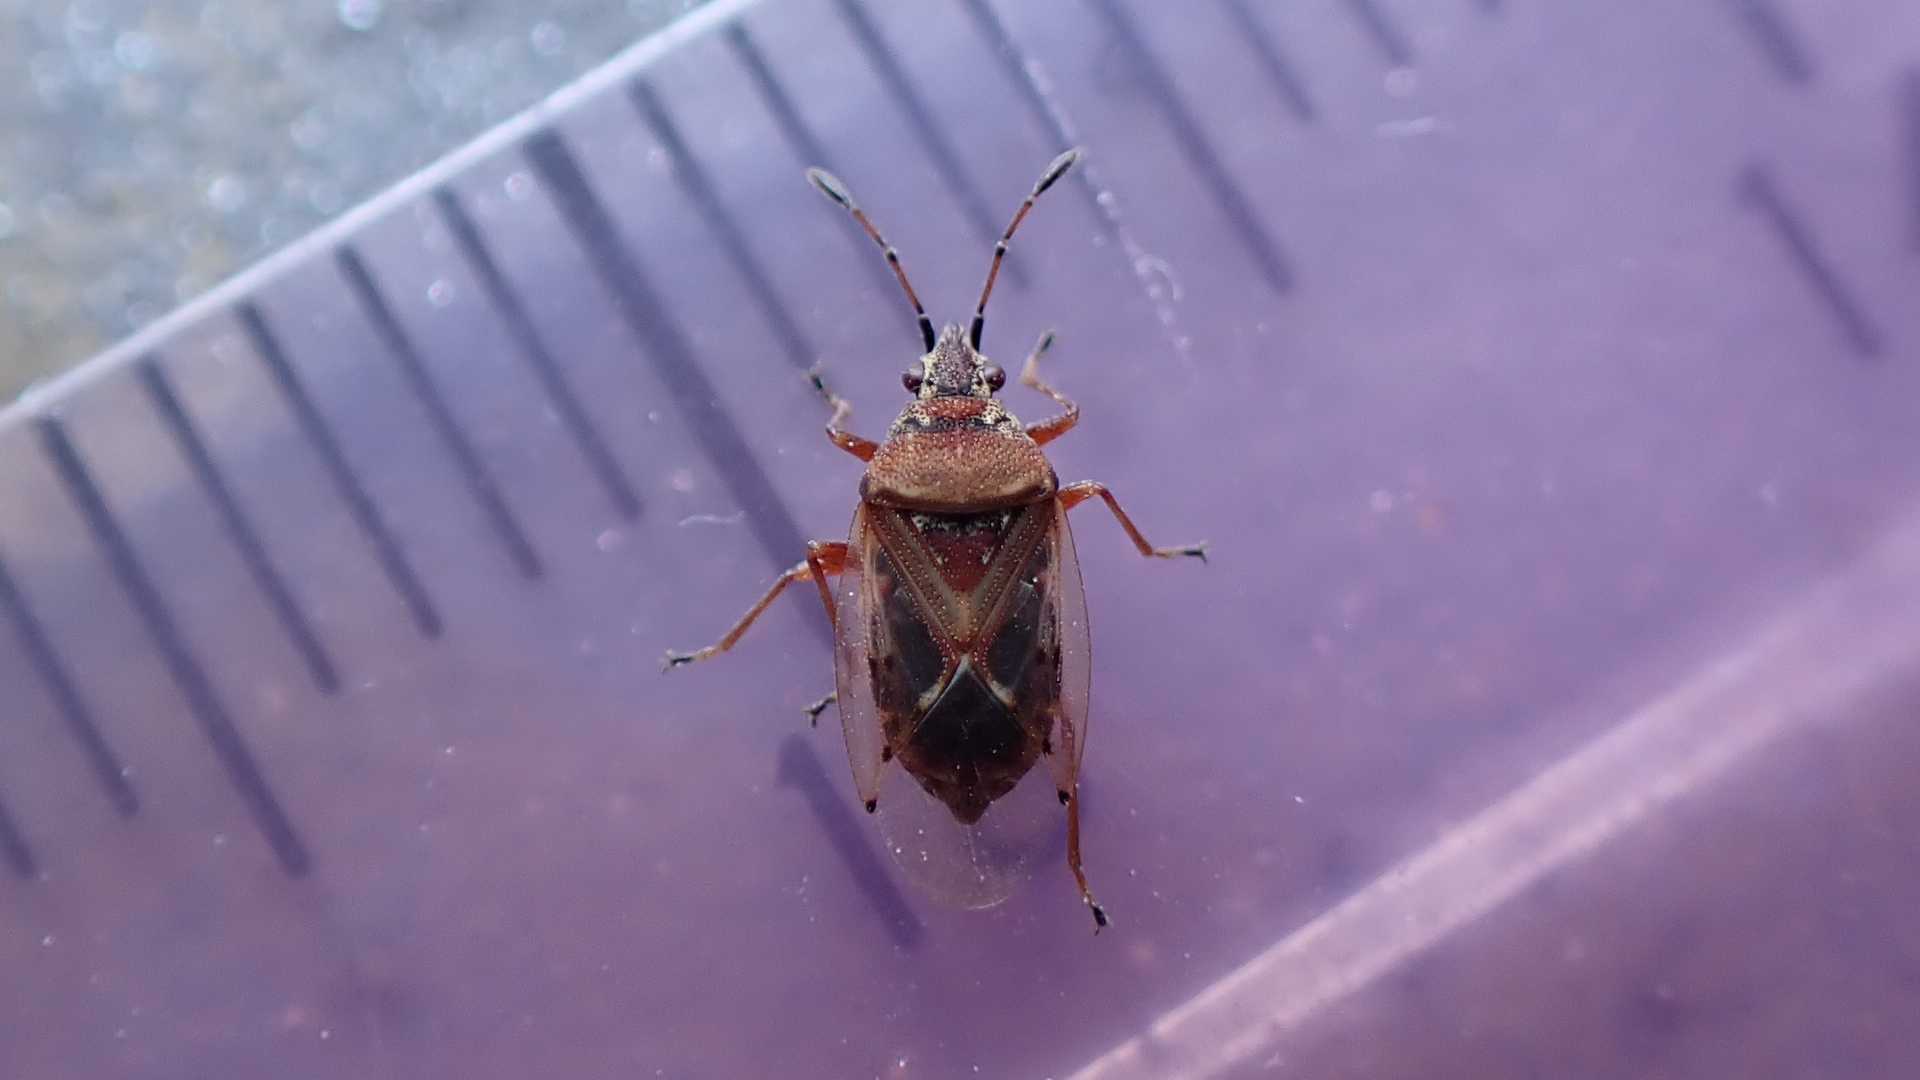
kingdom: Animalia
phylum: Arthropoda
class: Insecta
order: Hemiptera
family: Lygaeidae
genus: Kleidocerys
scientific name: Kleidocerys resedae
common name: Birch catkin bug
